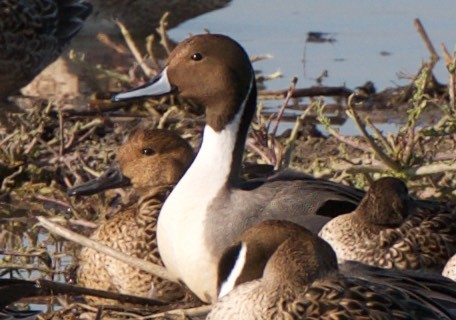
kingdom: Animalia
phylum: Chordata
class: Aves
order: Anseriformes
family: Anatidae
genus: Anas
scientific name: Anas acuta
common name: Northern pintail
